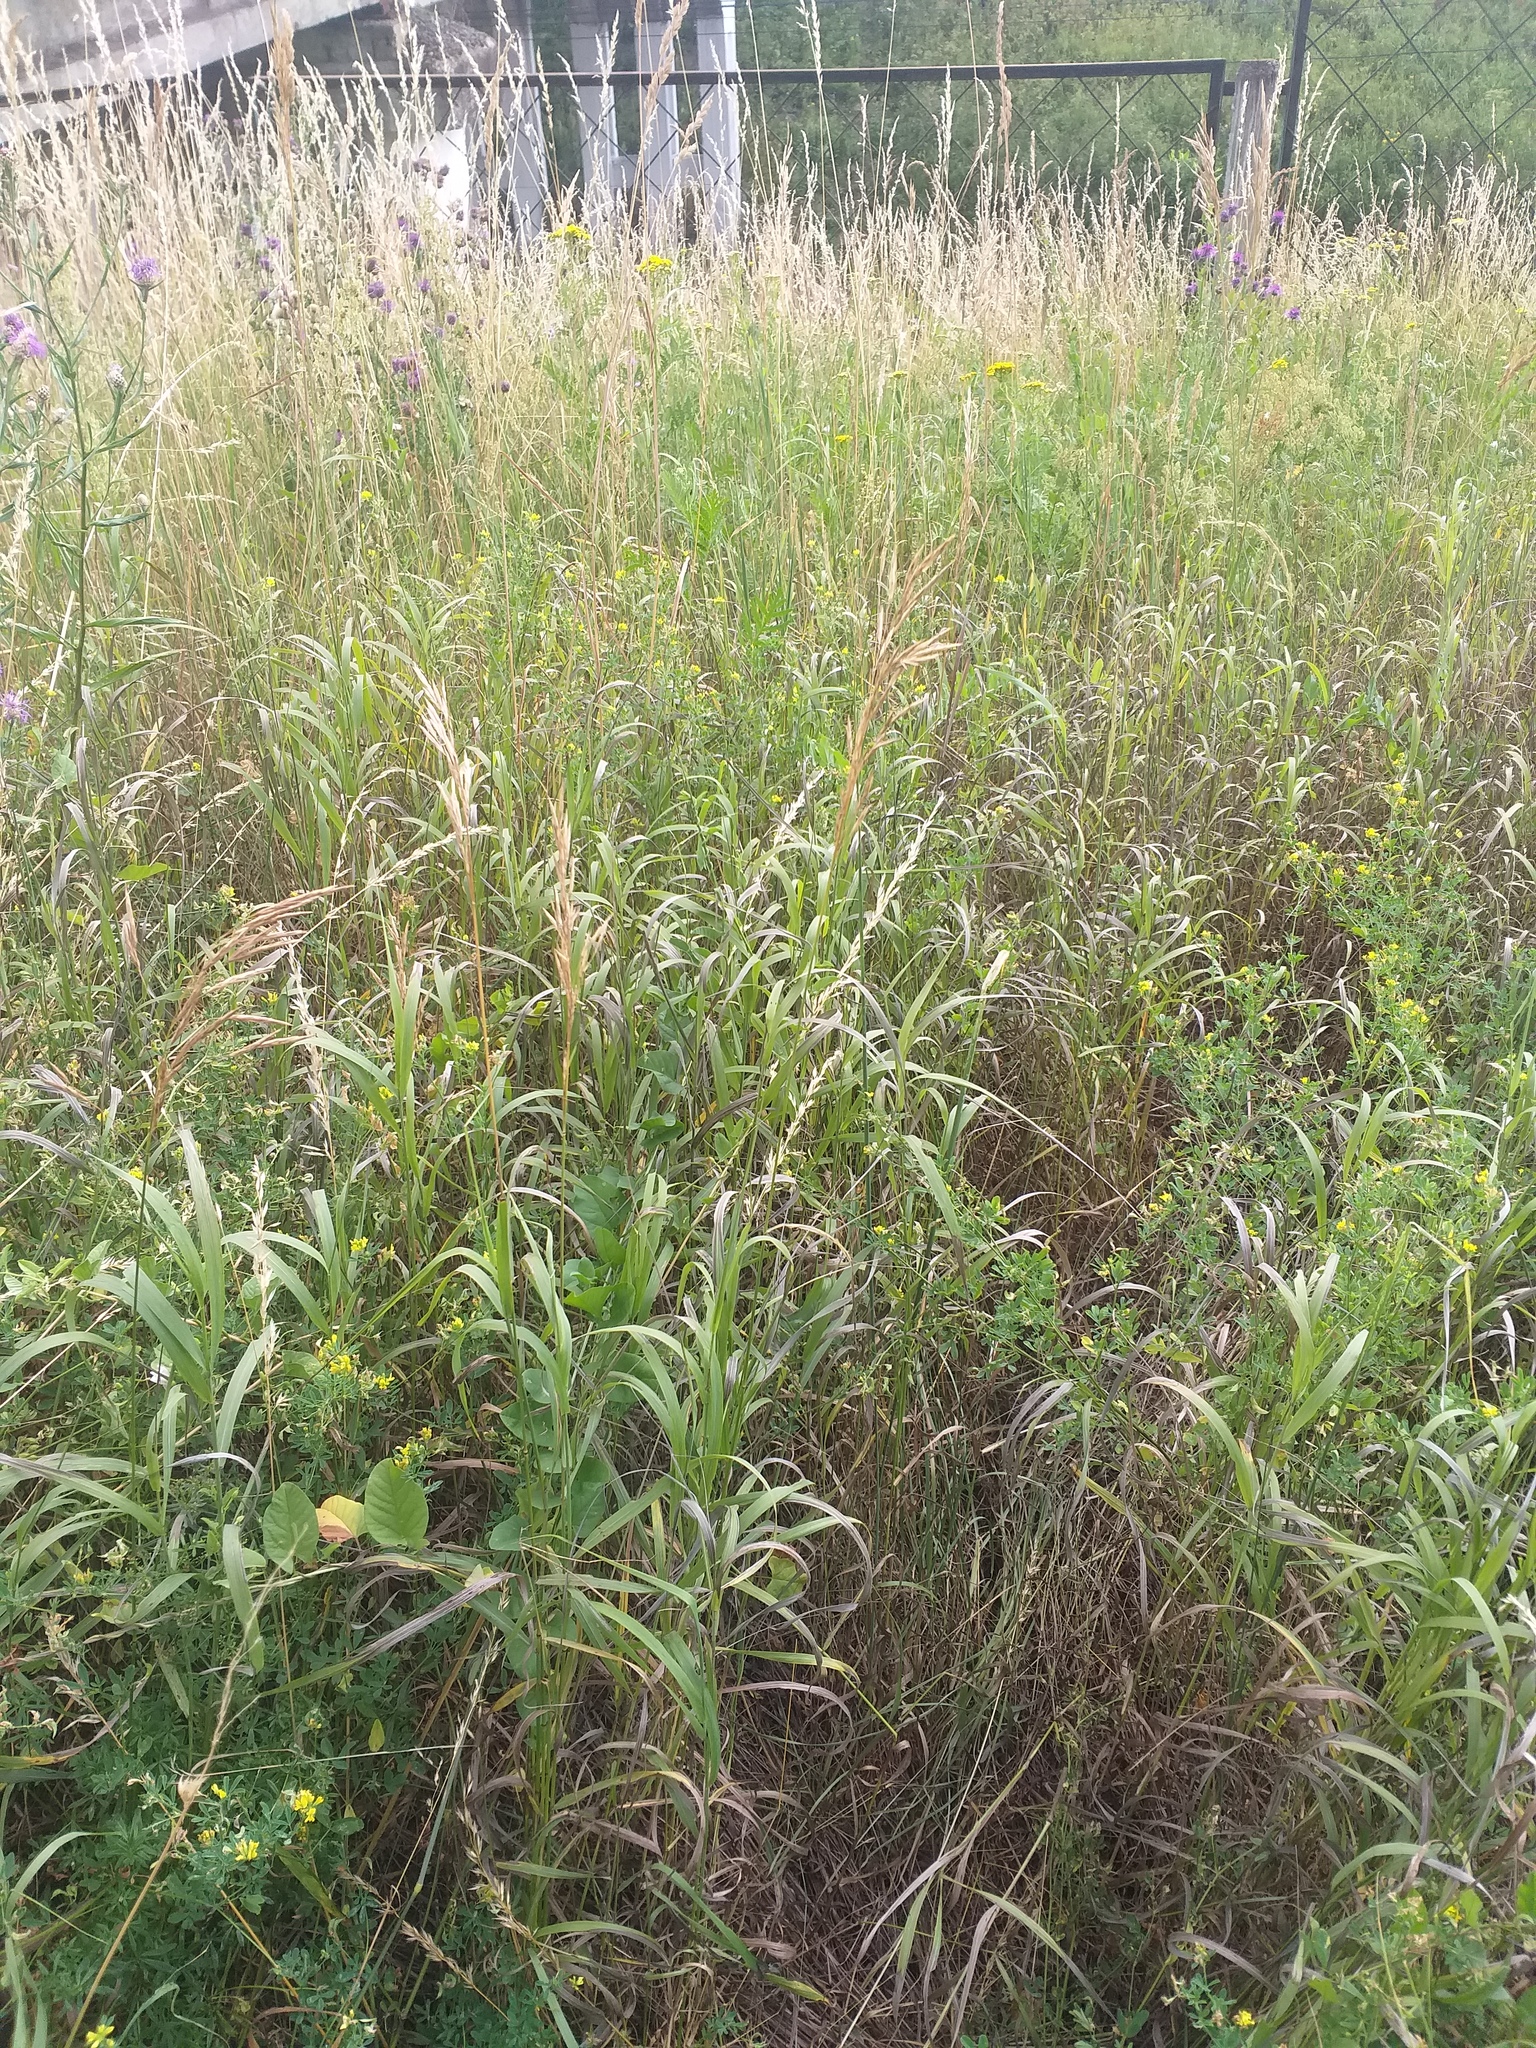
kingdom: Plantae
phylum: Tracheophyta
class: Liliopsida
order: Poales
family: Poaceae
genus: Bromus
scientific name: Bromus inermis
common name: Smooth brome
